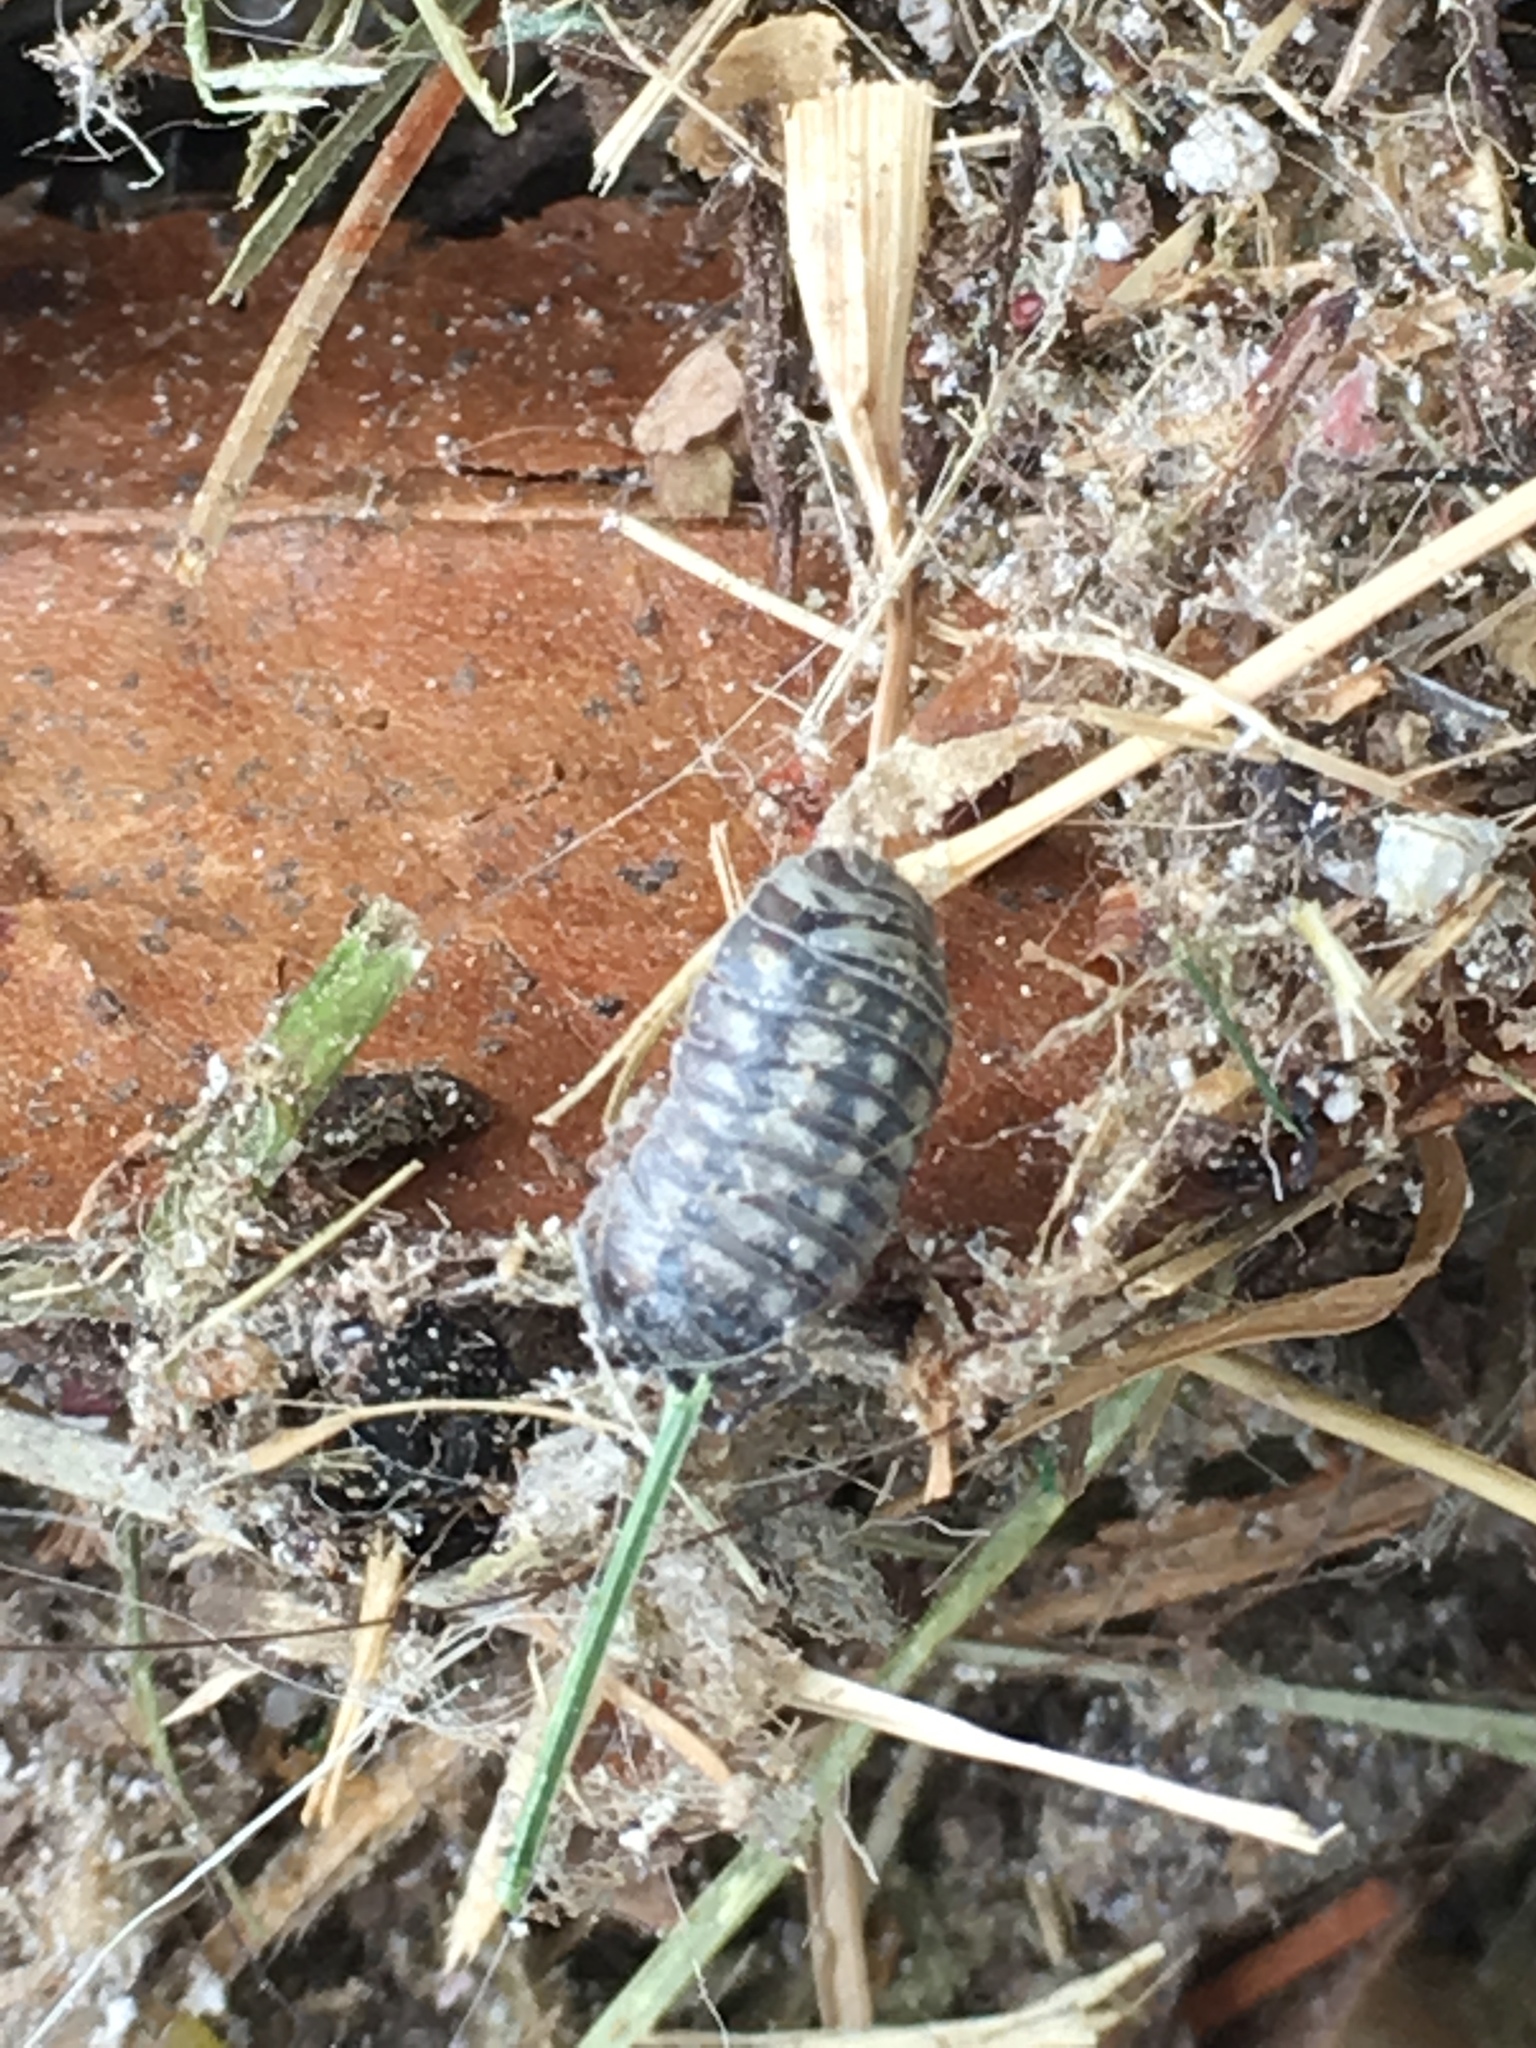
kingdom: Animalia
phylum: Arthropoda
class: Malacostraca
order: Isopoda
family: Armadillidiidae
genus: Armadillidium
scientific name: Armadillidium nasatum
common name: Isopod
